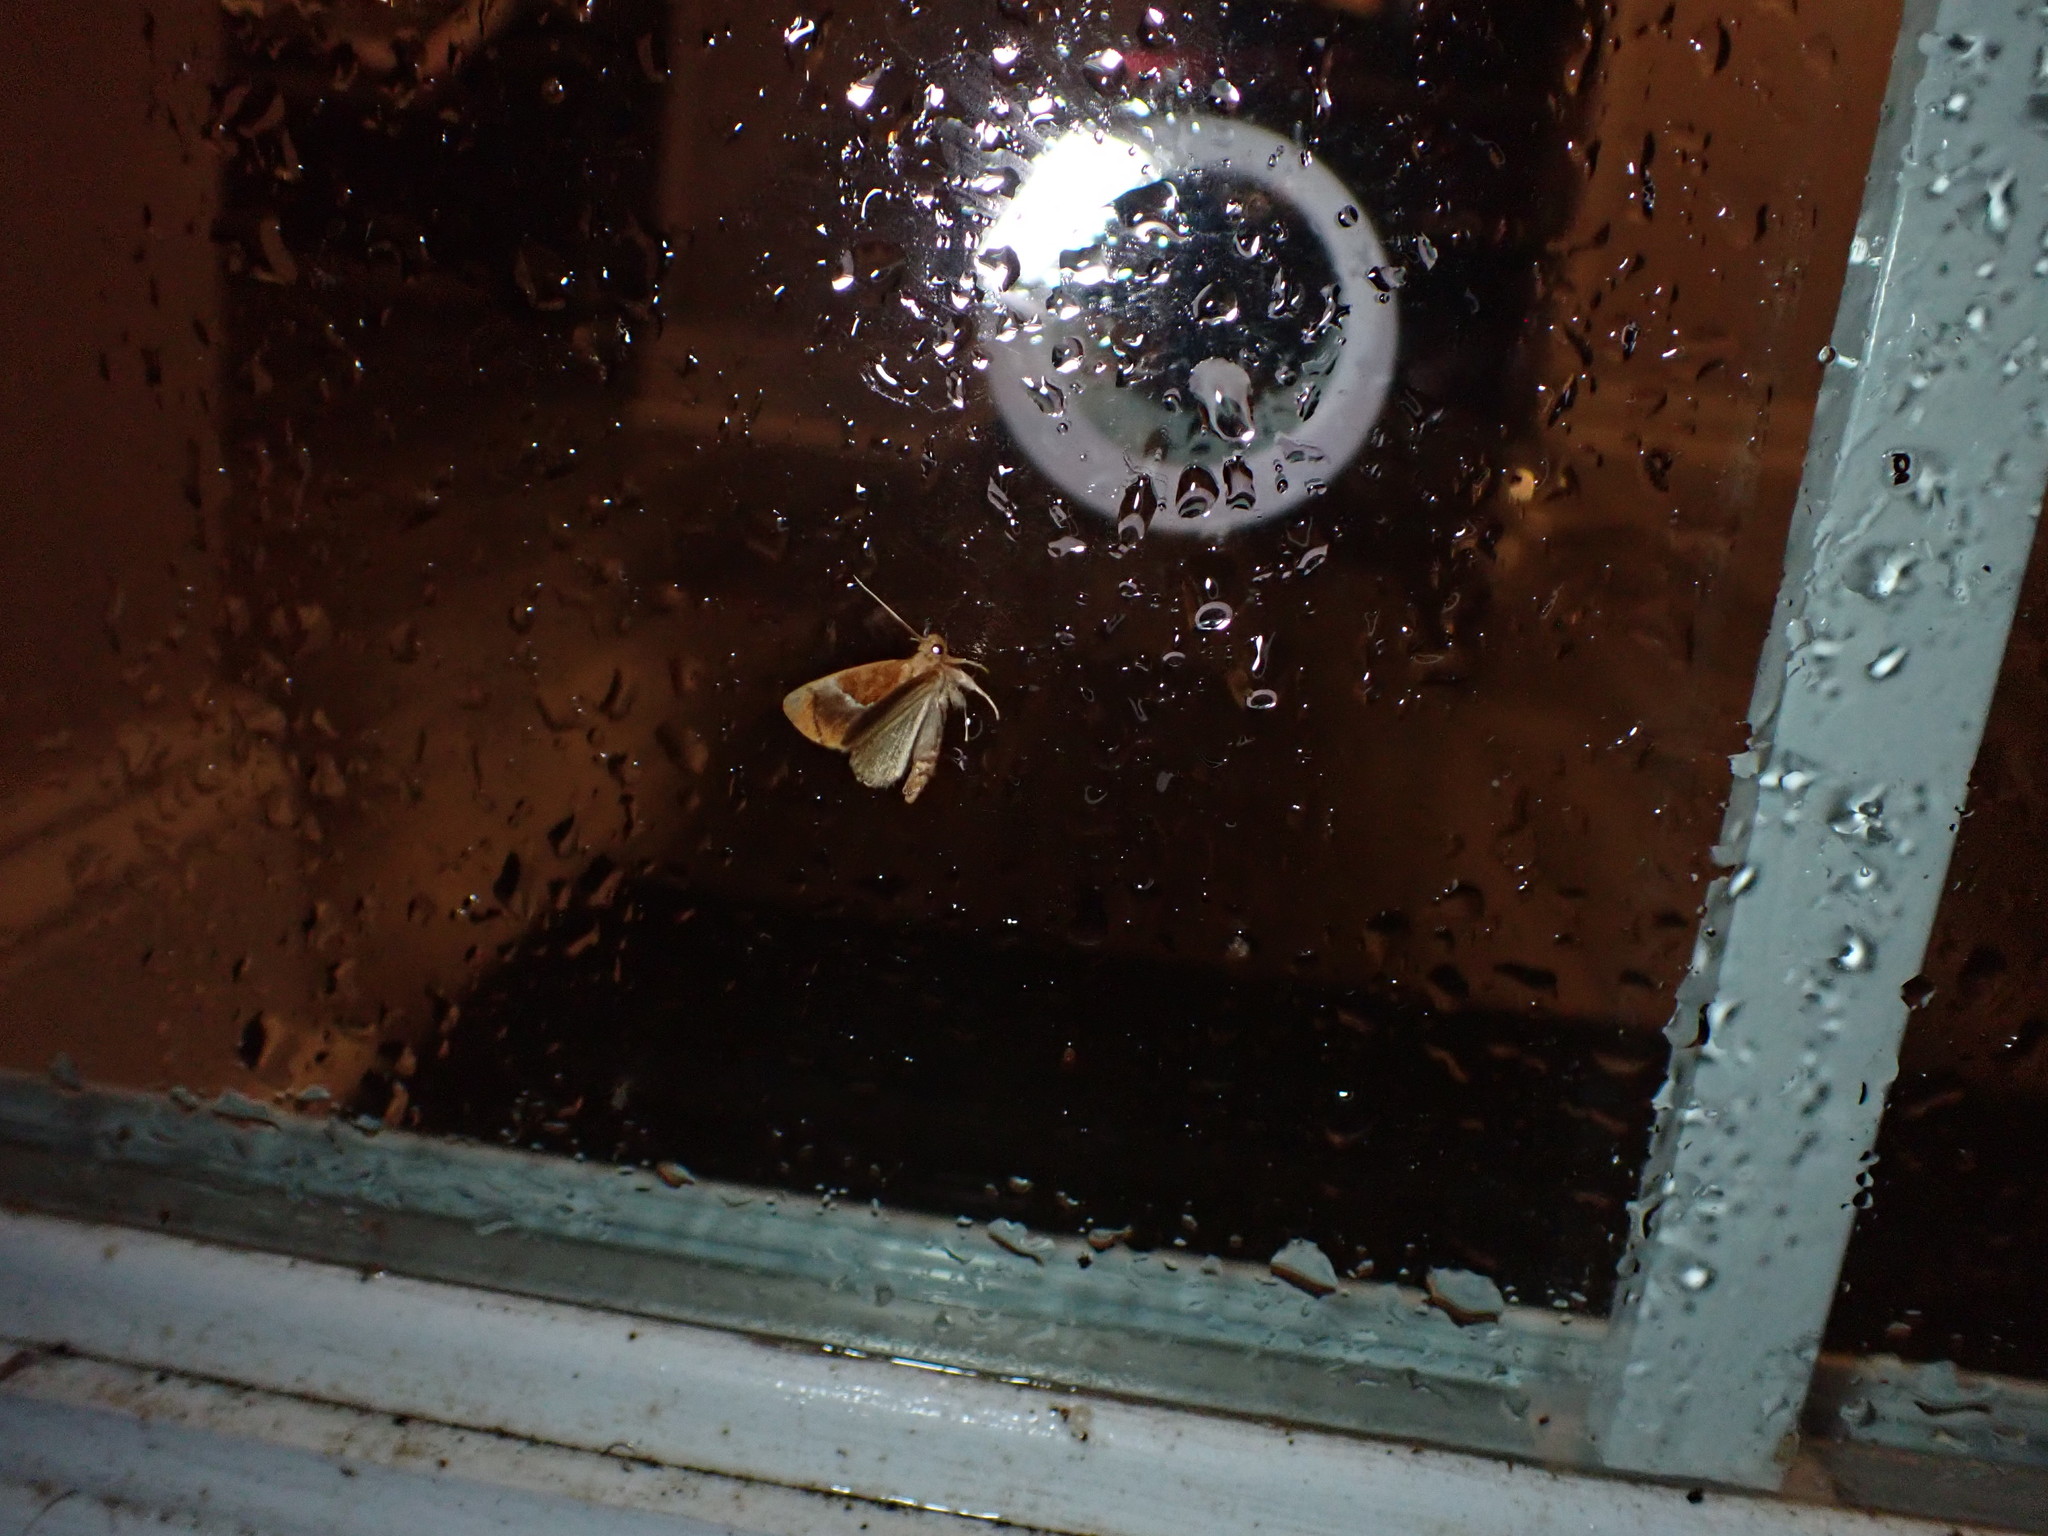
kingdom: Animalia
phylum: Arthropoda
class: Insecta
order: Lepidoptera
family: Limacodidae
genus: Lithacodes
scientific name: Lithacodes fasciola
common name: Yellow-shouldered slug moth
